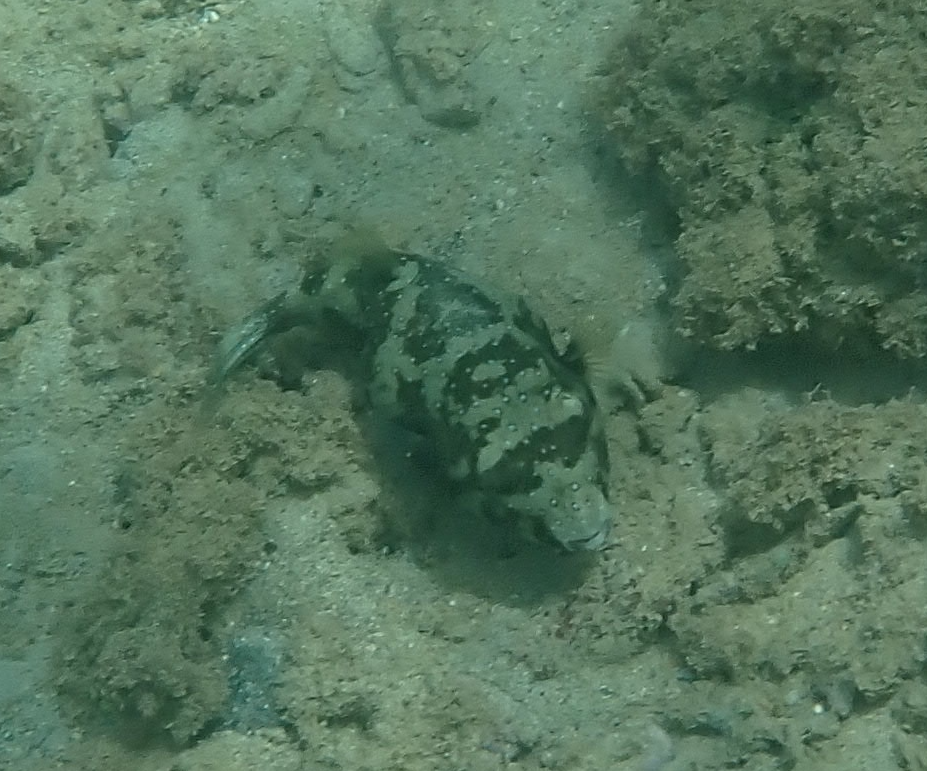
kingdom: Animalia
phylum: Chordata
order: Tetraodontiformes
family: Tetraodontidae
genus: Arothron
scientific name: Arothron hispidus
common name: Stripebelly puffer
